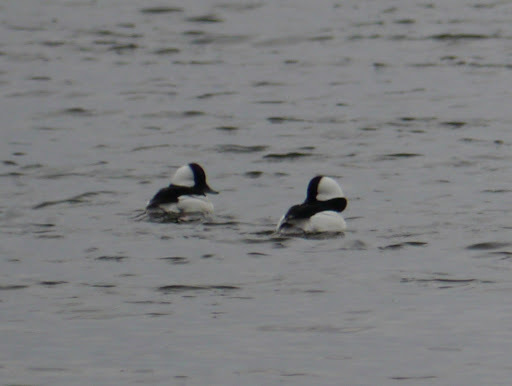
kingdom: Animalia
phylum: Chordata
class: Aves
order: Anseriformes
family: Anatidae
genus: Bucephala
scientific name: Bucephala albeola
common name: Bufflehead
